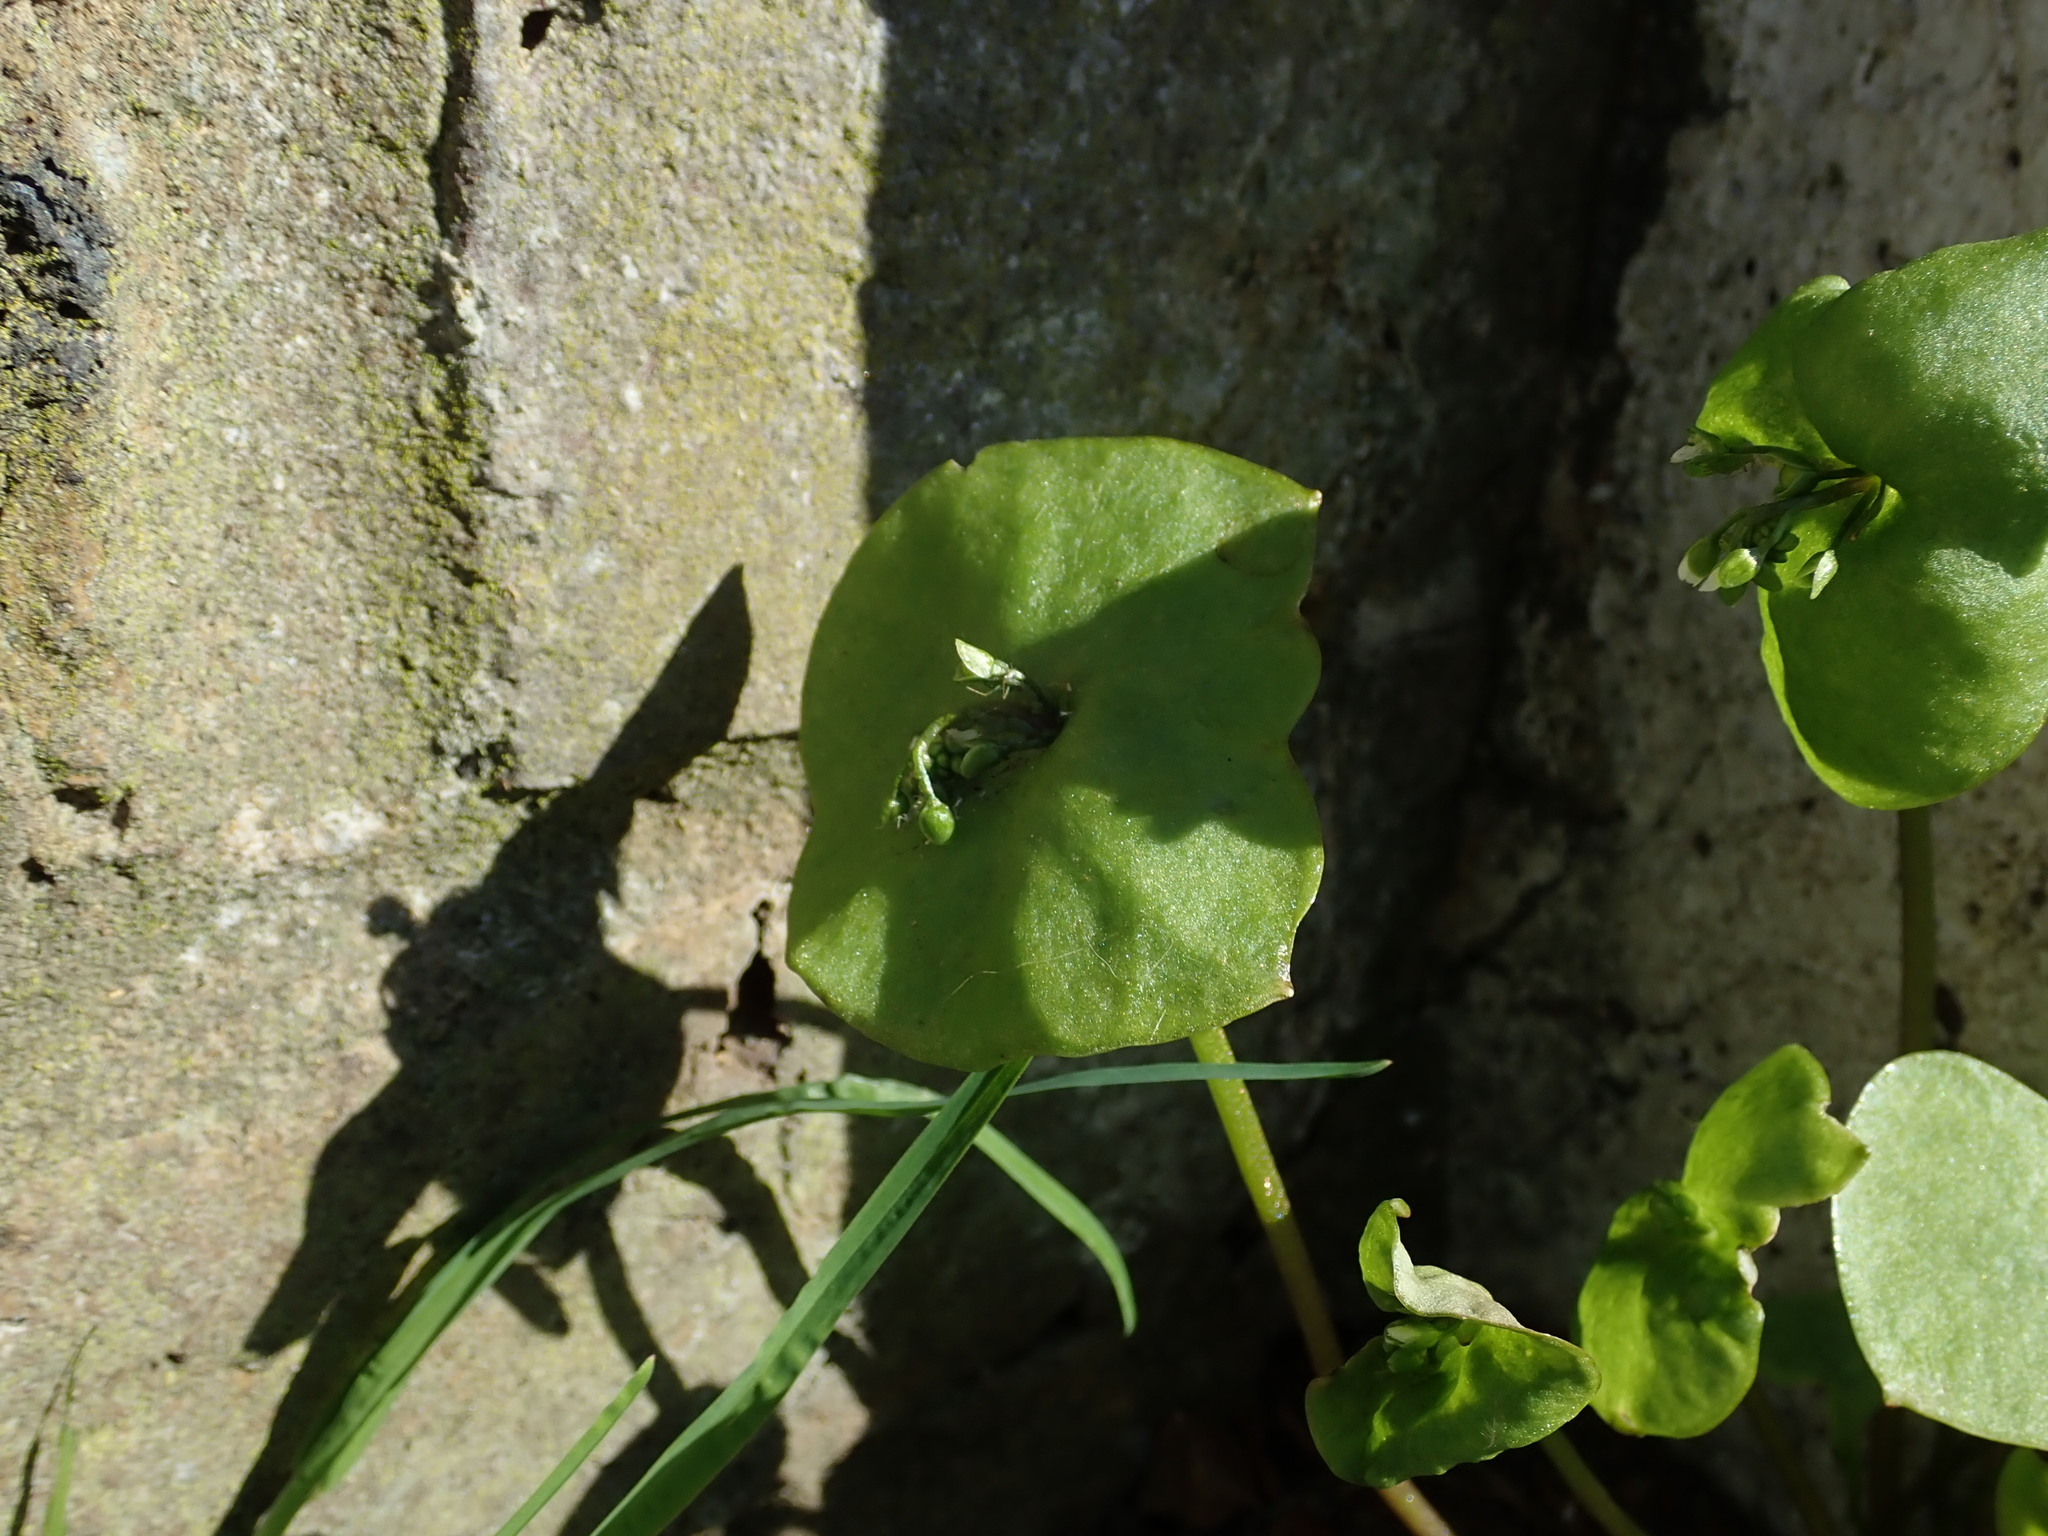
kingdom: Plantae
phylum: Tracheophyta
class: Magnoliopsida
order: Caryophyllales
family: Montiaceae
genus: Claytonia
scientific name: Claytonia perfoliata
